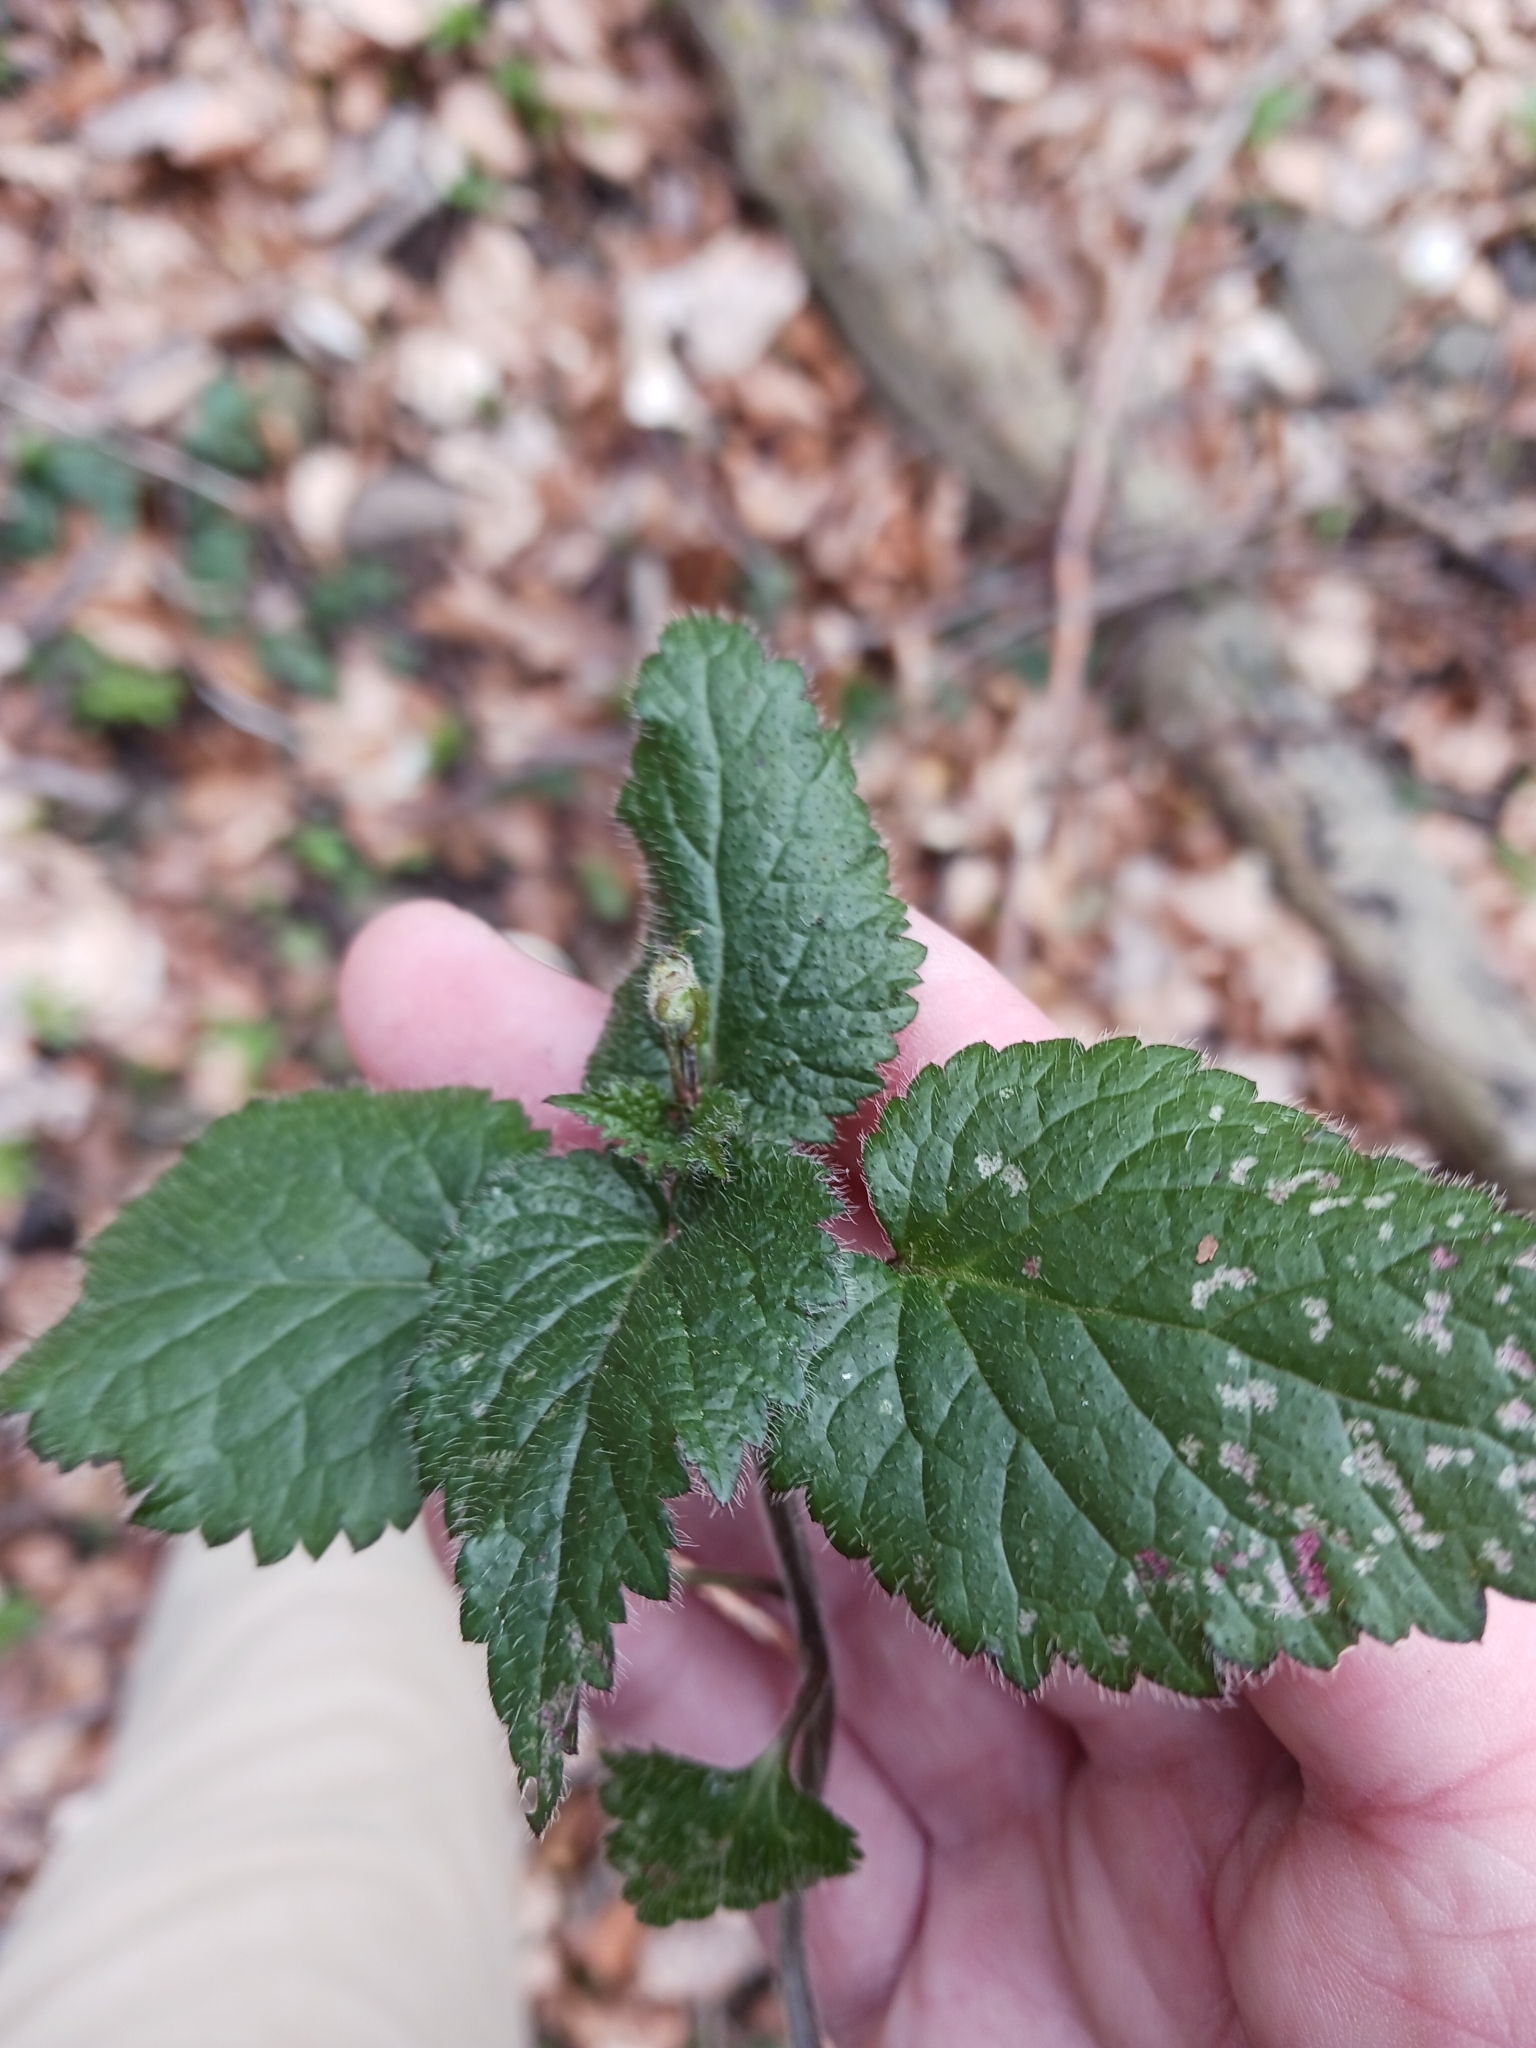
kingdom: Plantae
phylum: Tracheophyta
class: Magnoliopsida
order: Lamiales
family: Lamiaceae
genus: Lamium
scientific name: Lamium galeobdolon
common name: Yellow archangel
